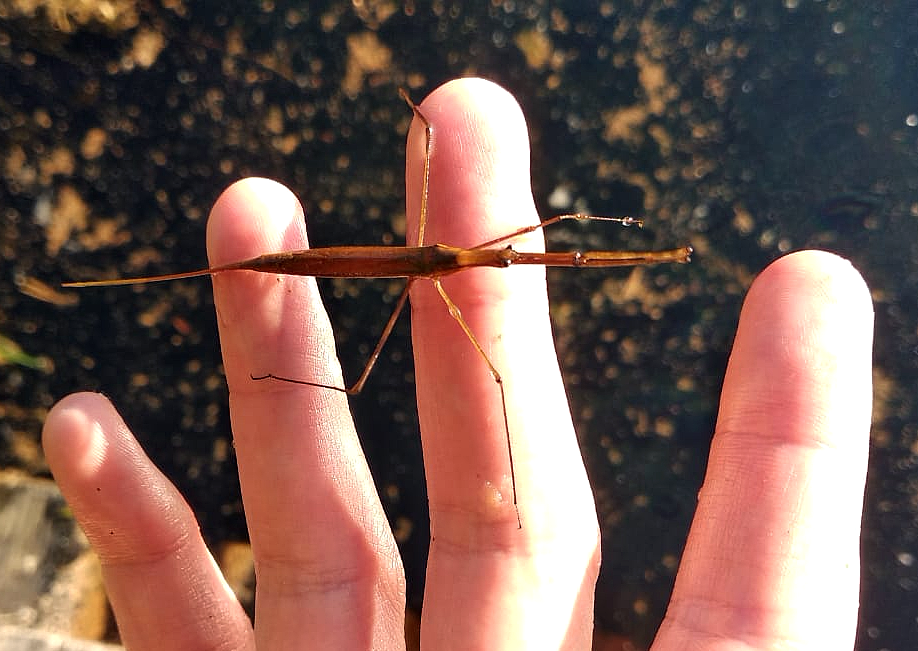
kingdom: Animalia
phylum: Arthropoda
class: Insecta
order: Hemiptera
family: Nepidae
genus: Ranatra
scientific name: Ranatra linearis
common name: Water stick insect
